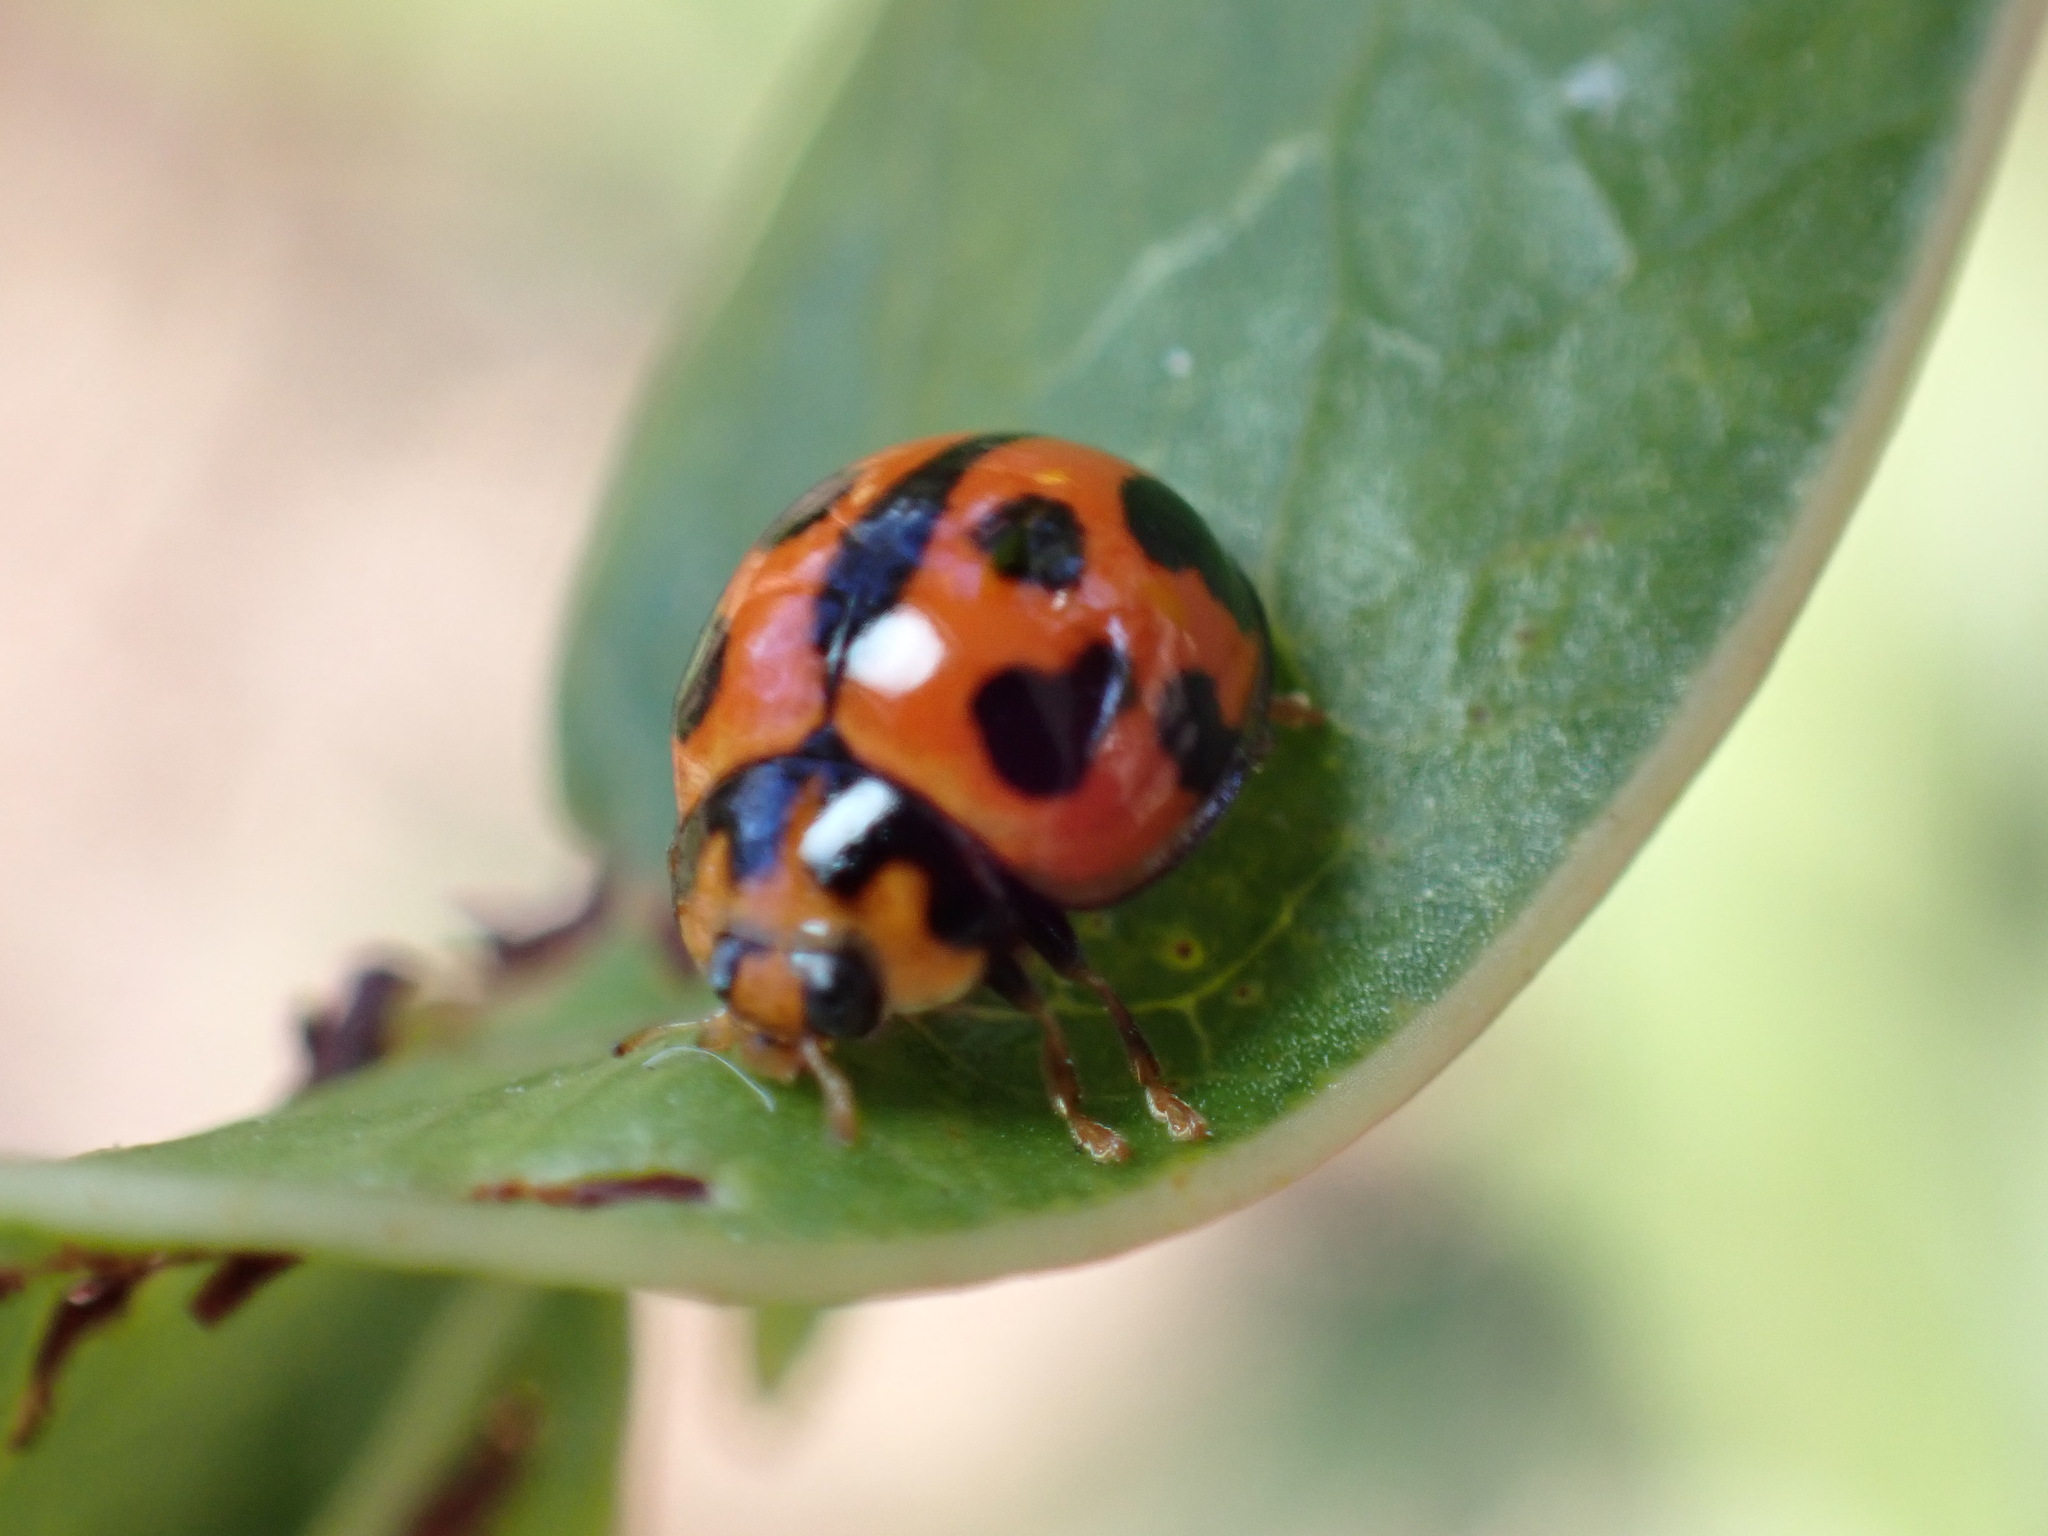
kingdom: Animalia
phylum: Arthropoda
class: Insecta
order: Coleoptera
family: Coccinellidae
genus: Coelophora
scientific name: Coelophora inaequalis
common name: Common australian lady beetle
